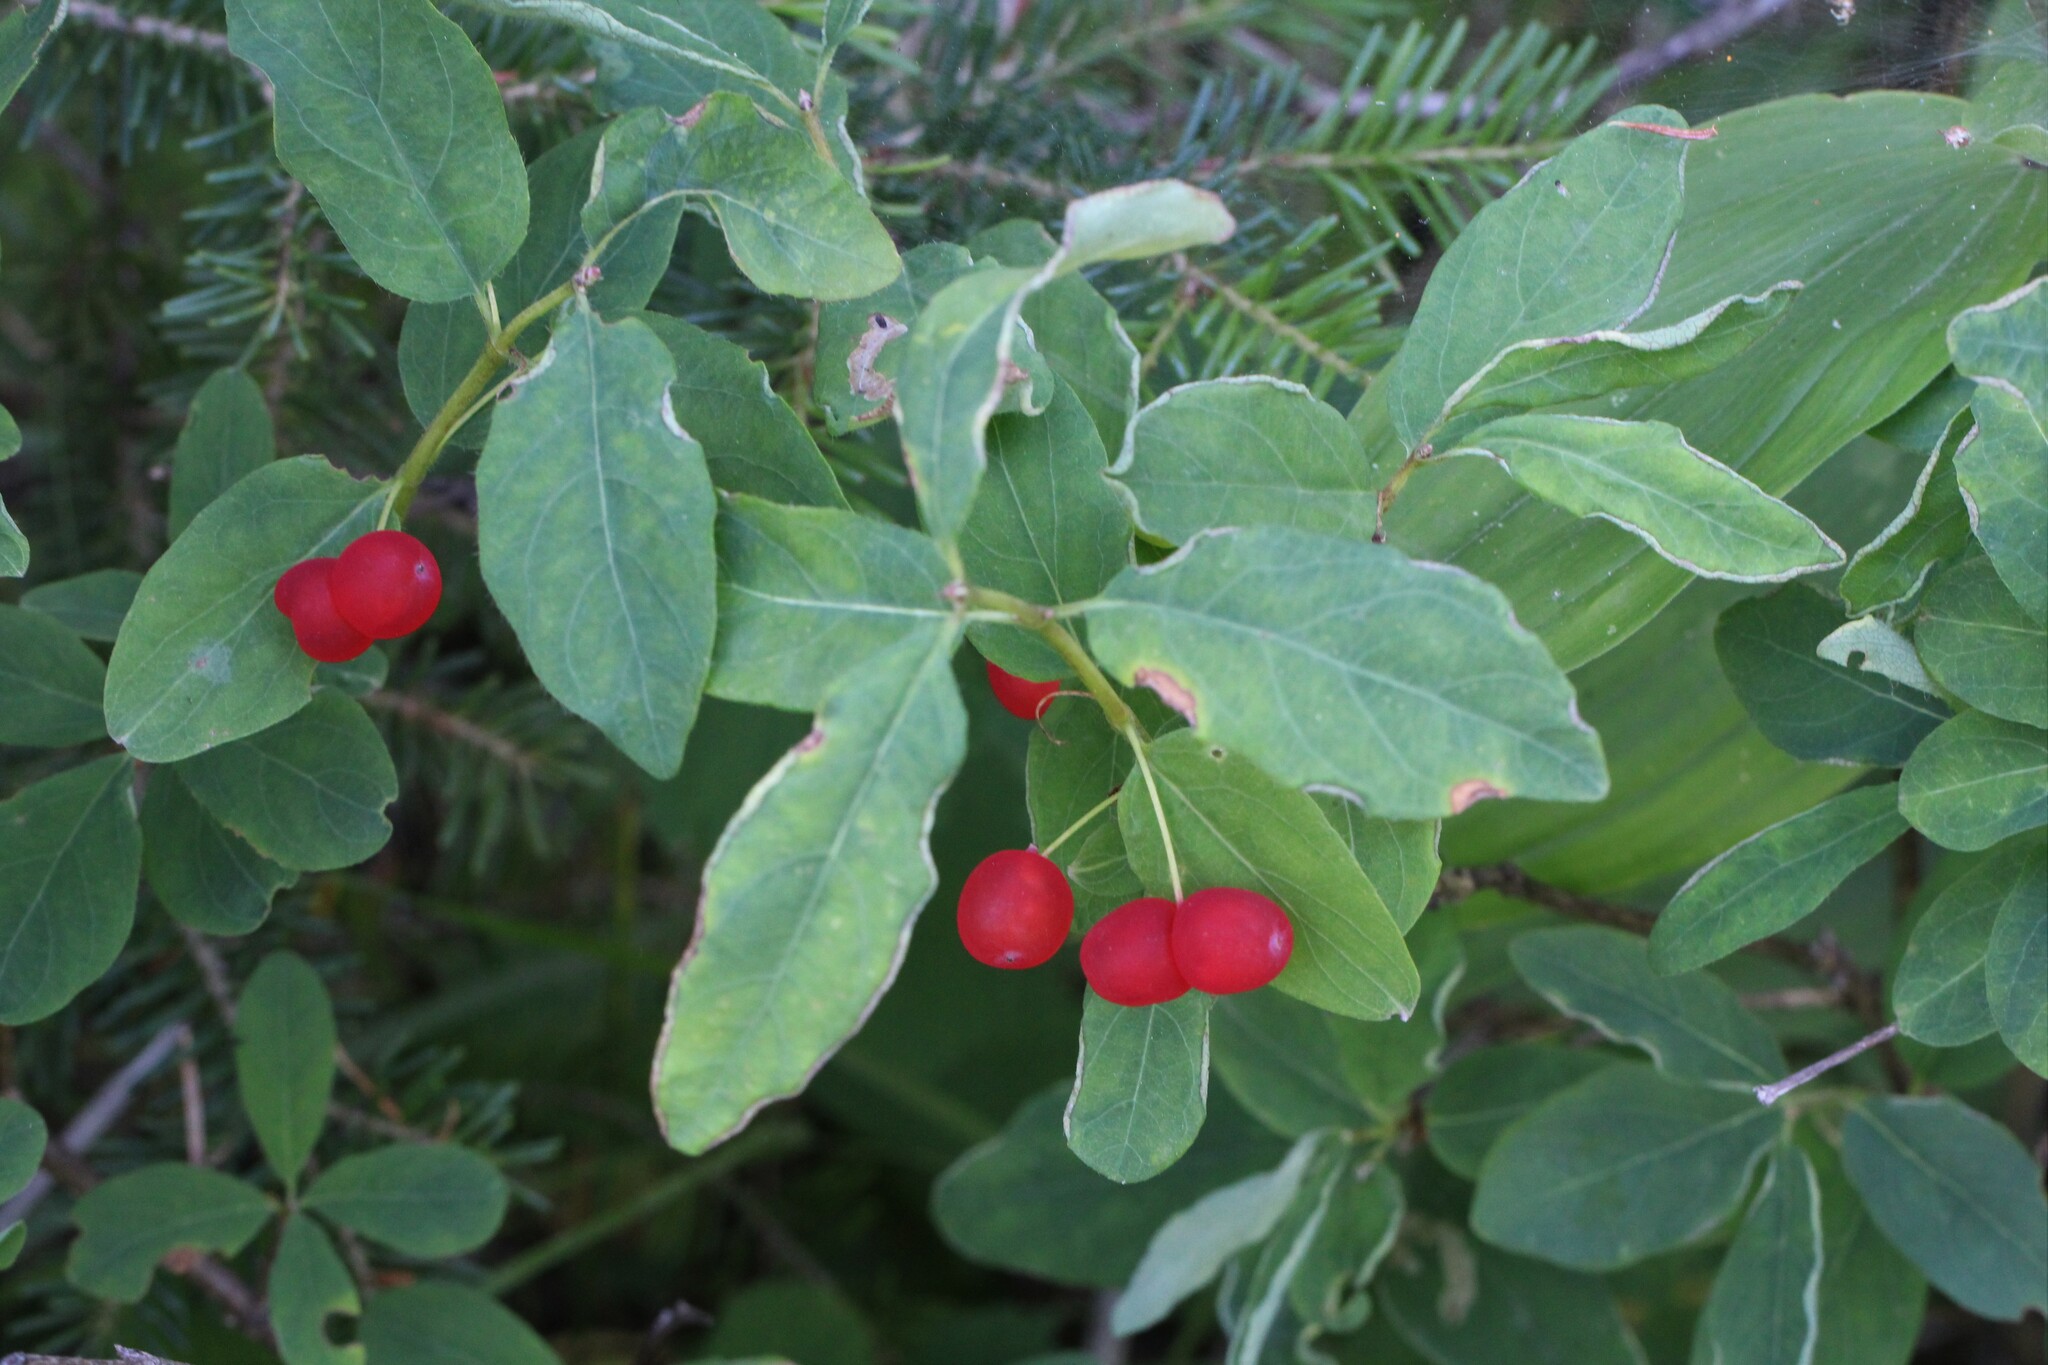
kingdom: Plantae
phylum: Tracheophyta
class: Magnoliopsida
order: Dipsacales
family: Caprifoliaceae
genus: Lonicera
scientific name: Lonicera utahensis
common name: Utah honeysuckle
